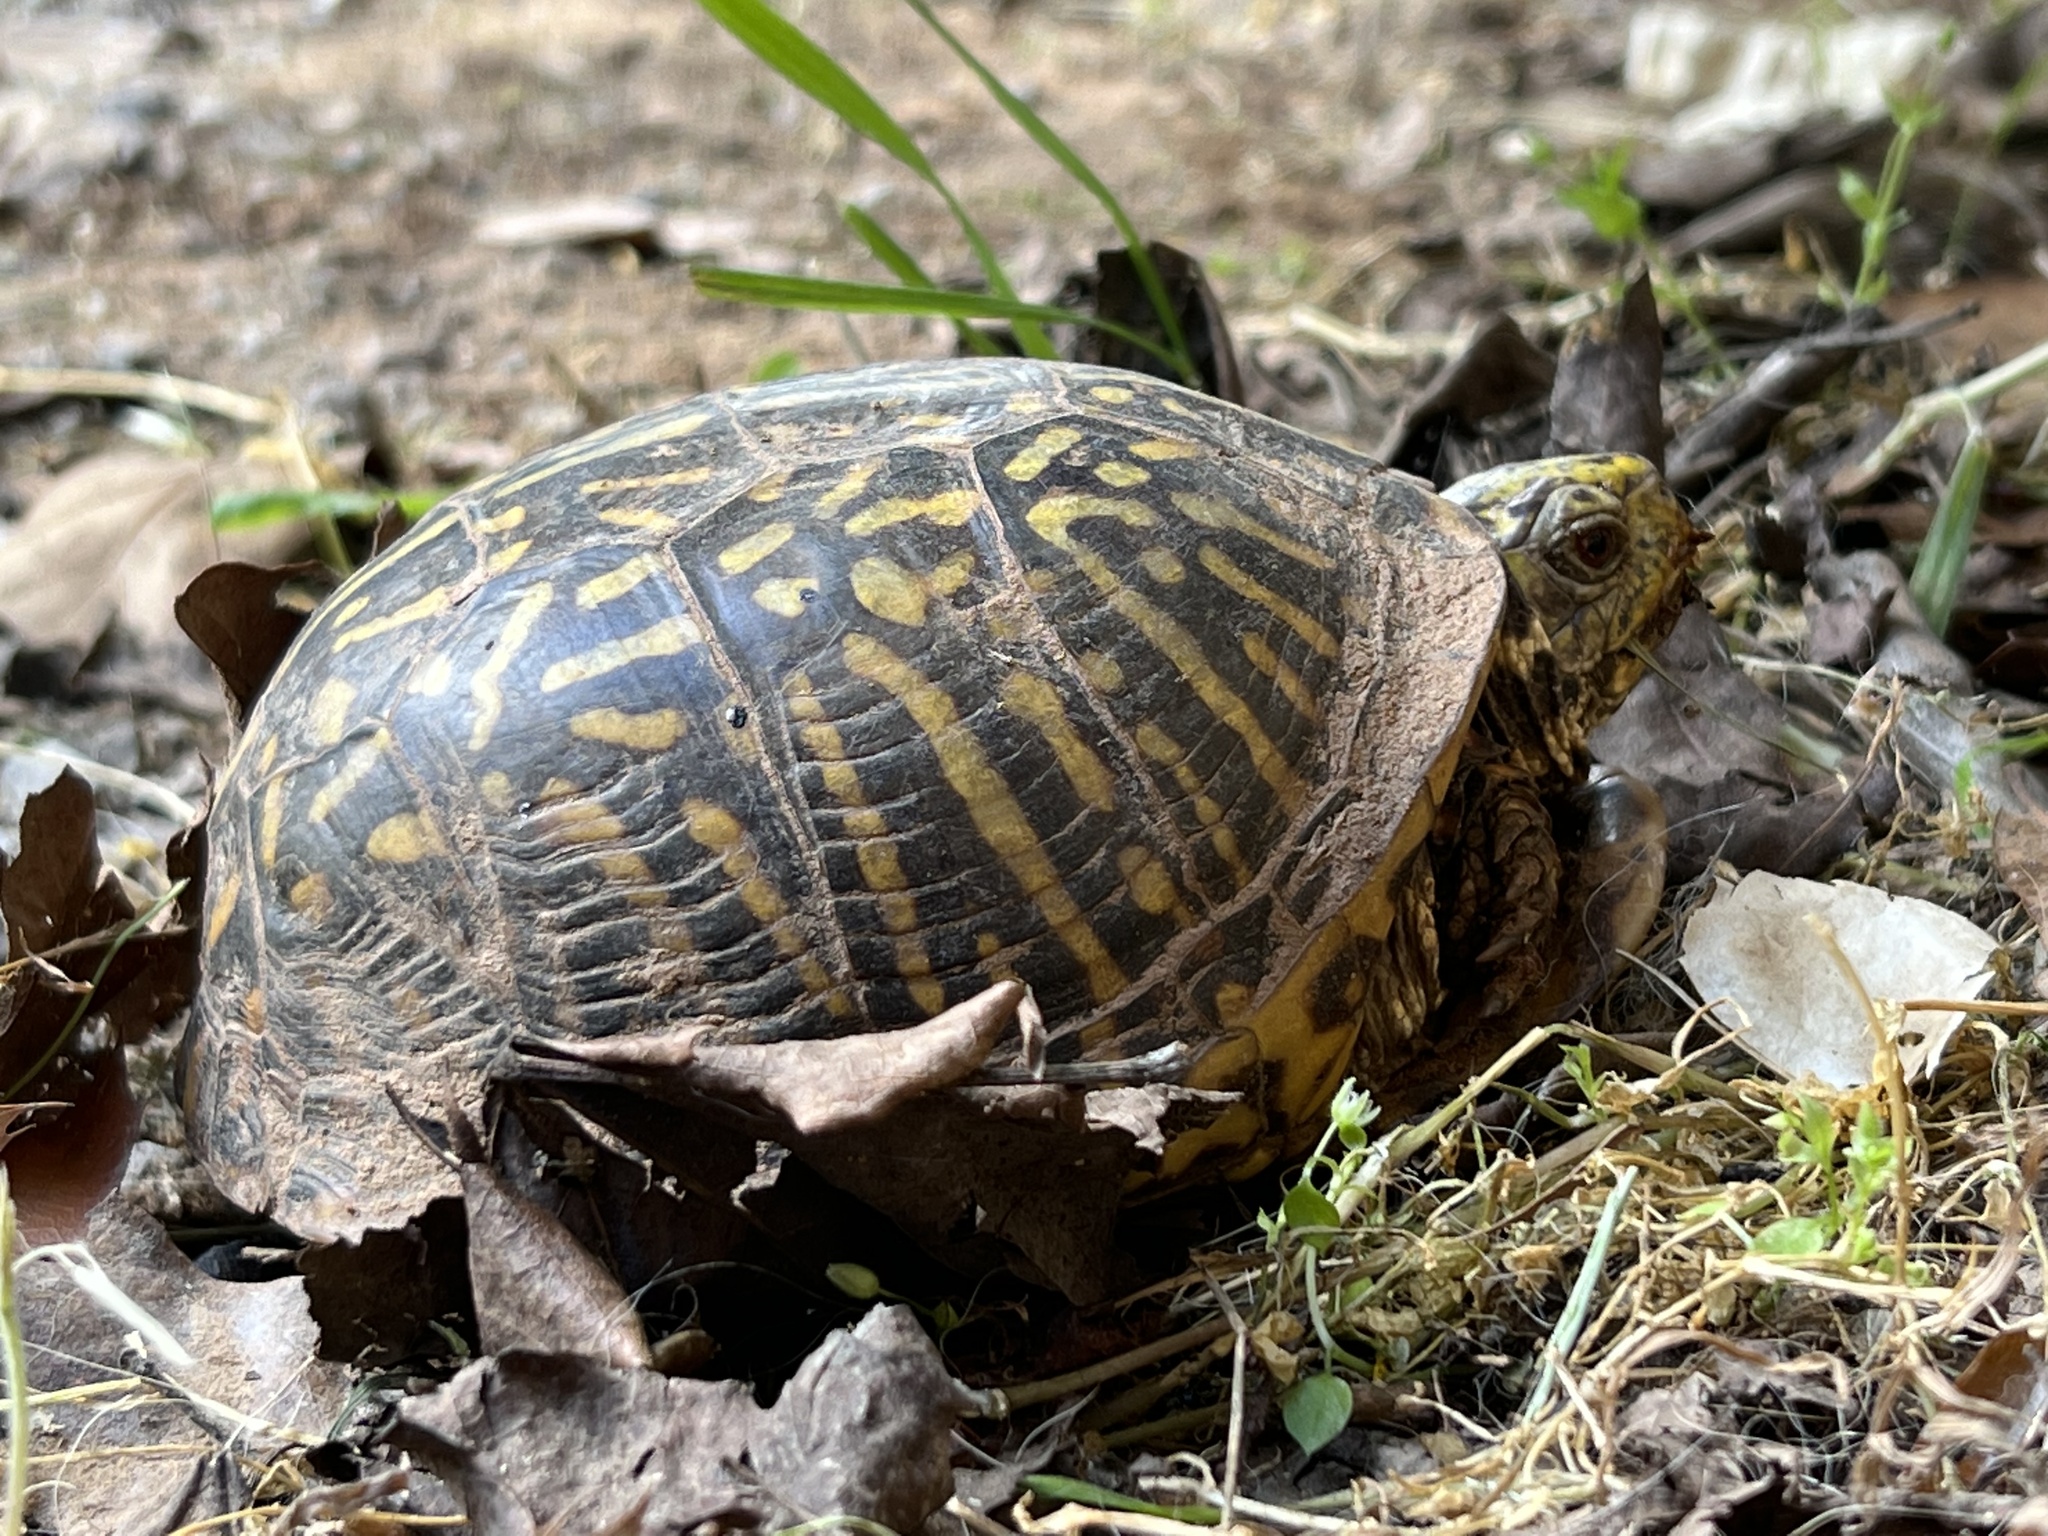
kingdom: Animalia
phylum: Chordata
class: Testudines
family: Emydidae
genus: Terrapene
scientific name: Terrapene ornata
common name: Western box turtle
